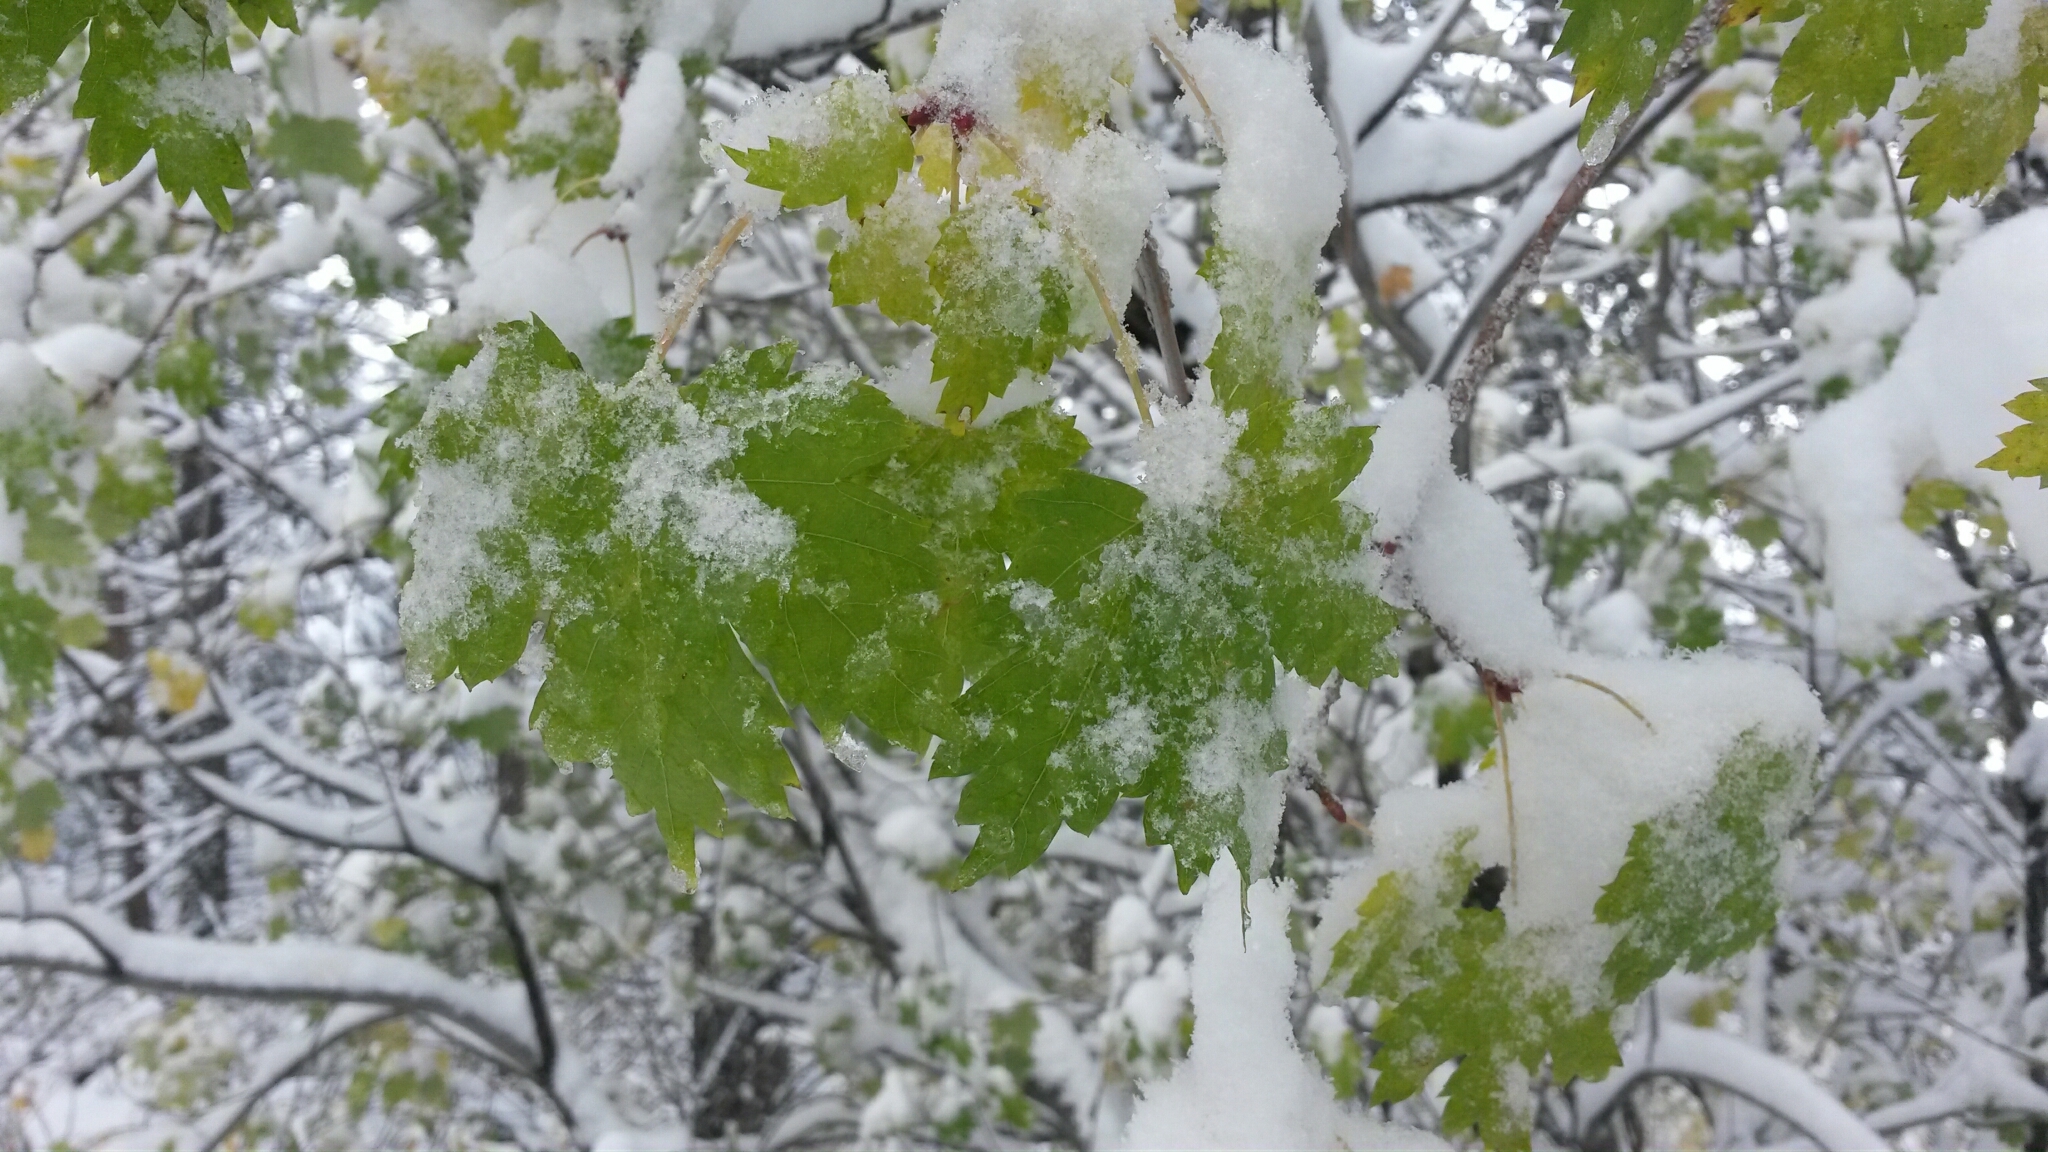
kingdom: Plantae
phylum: Tracheophyta
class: Magnoliopsida
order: Sapindales
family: Sapindaceae
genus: Acer
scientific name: Acer glabrum
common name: Rocky mountain maple
